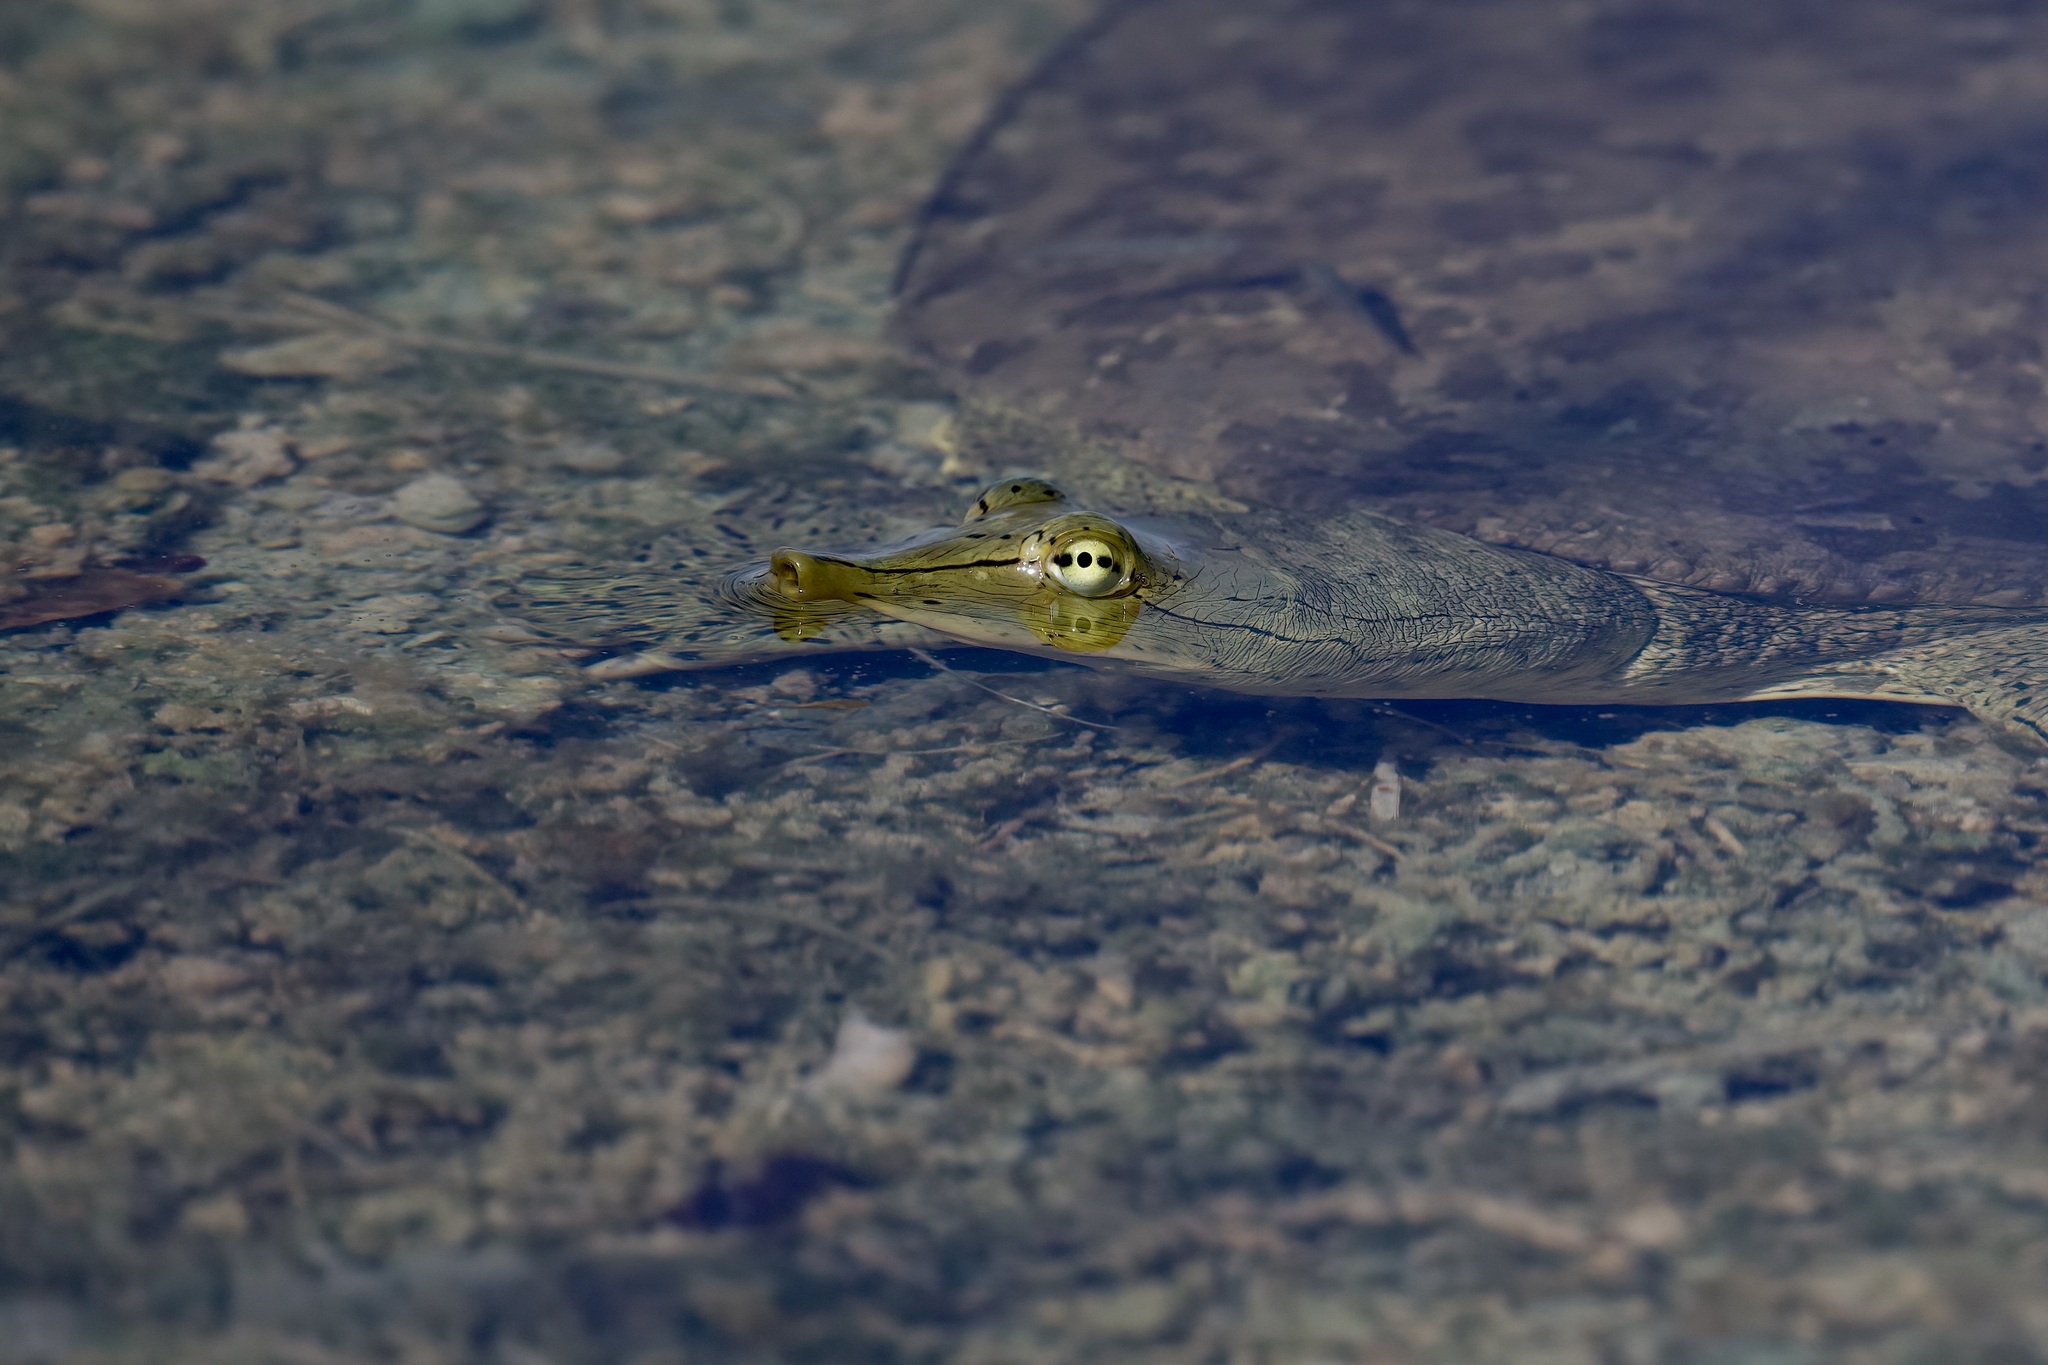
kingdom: Animalia
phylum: Chordata
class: Testudines
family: Trionychidae
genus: Apalone
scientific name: Apalone spinifera
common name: Spiny softshell turtle
